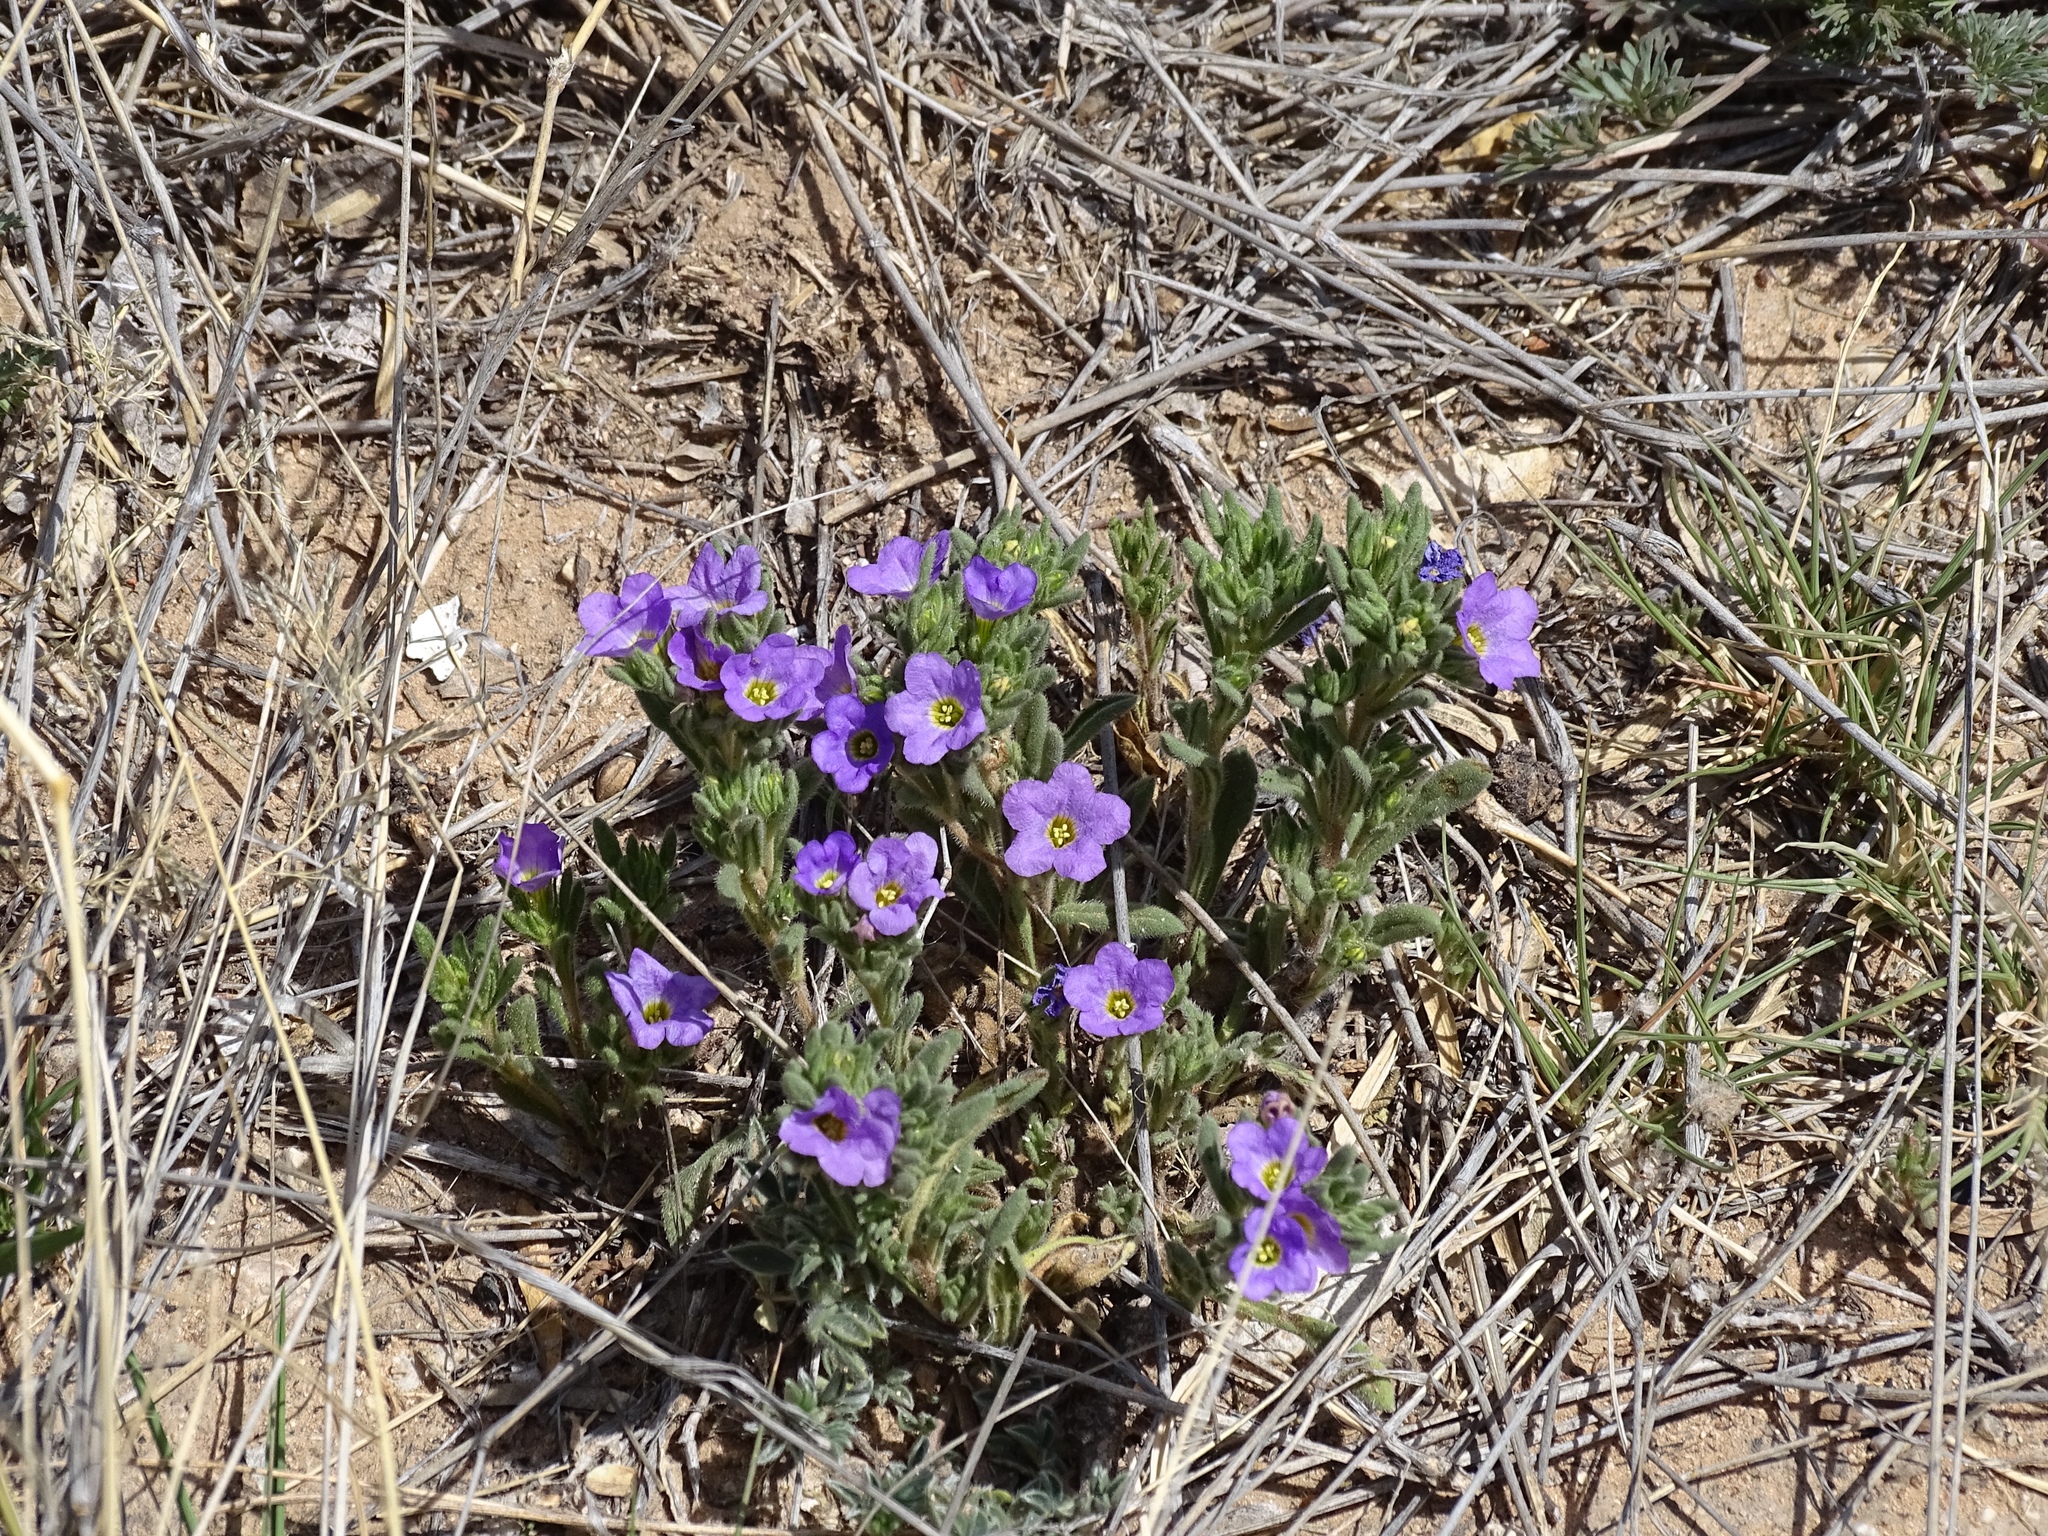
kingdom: Plantae
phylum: Tracheophyta
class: Magnoliopsida
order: Boraginales
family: Namaceae
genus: Nama
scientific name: Nama hispida
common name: Bristly nama
